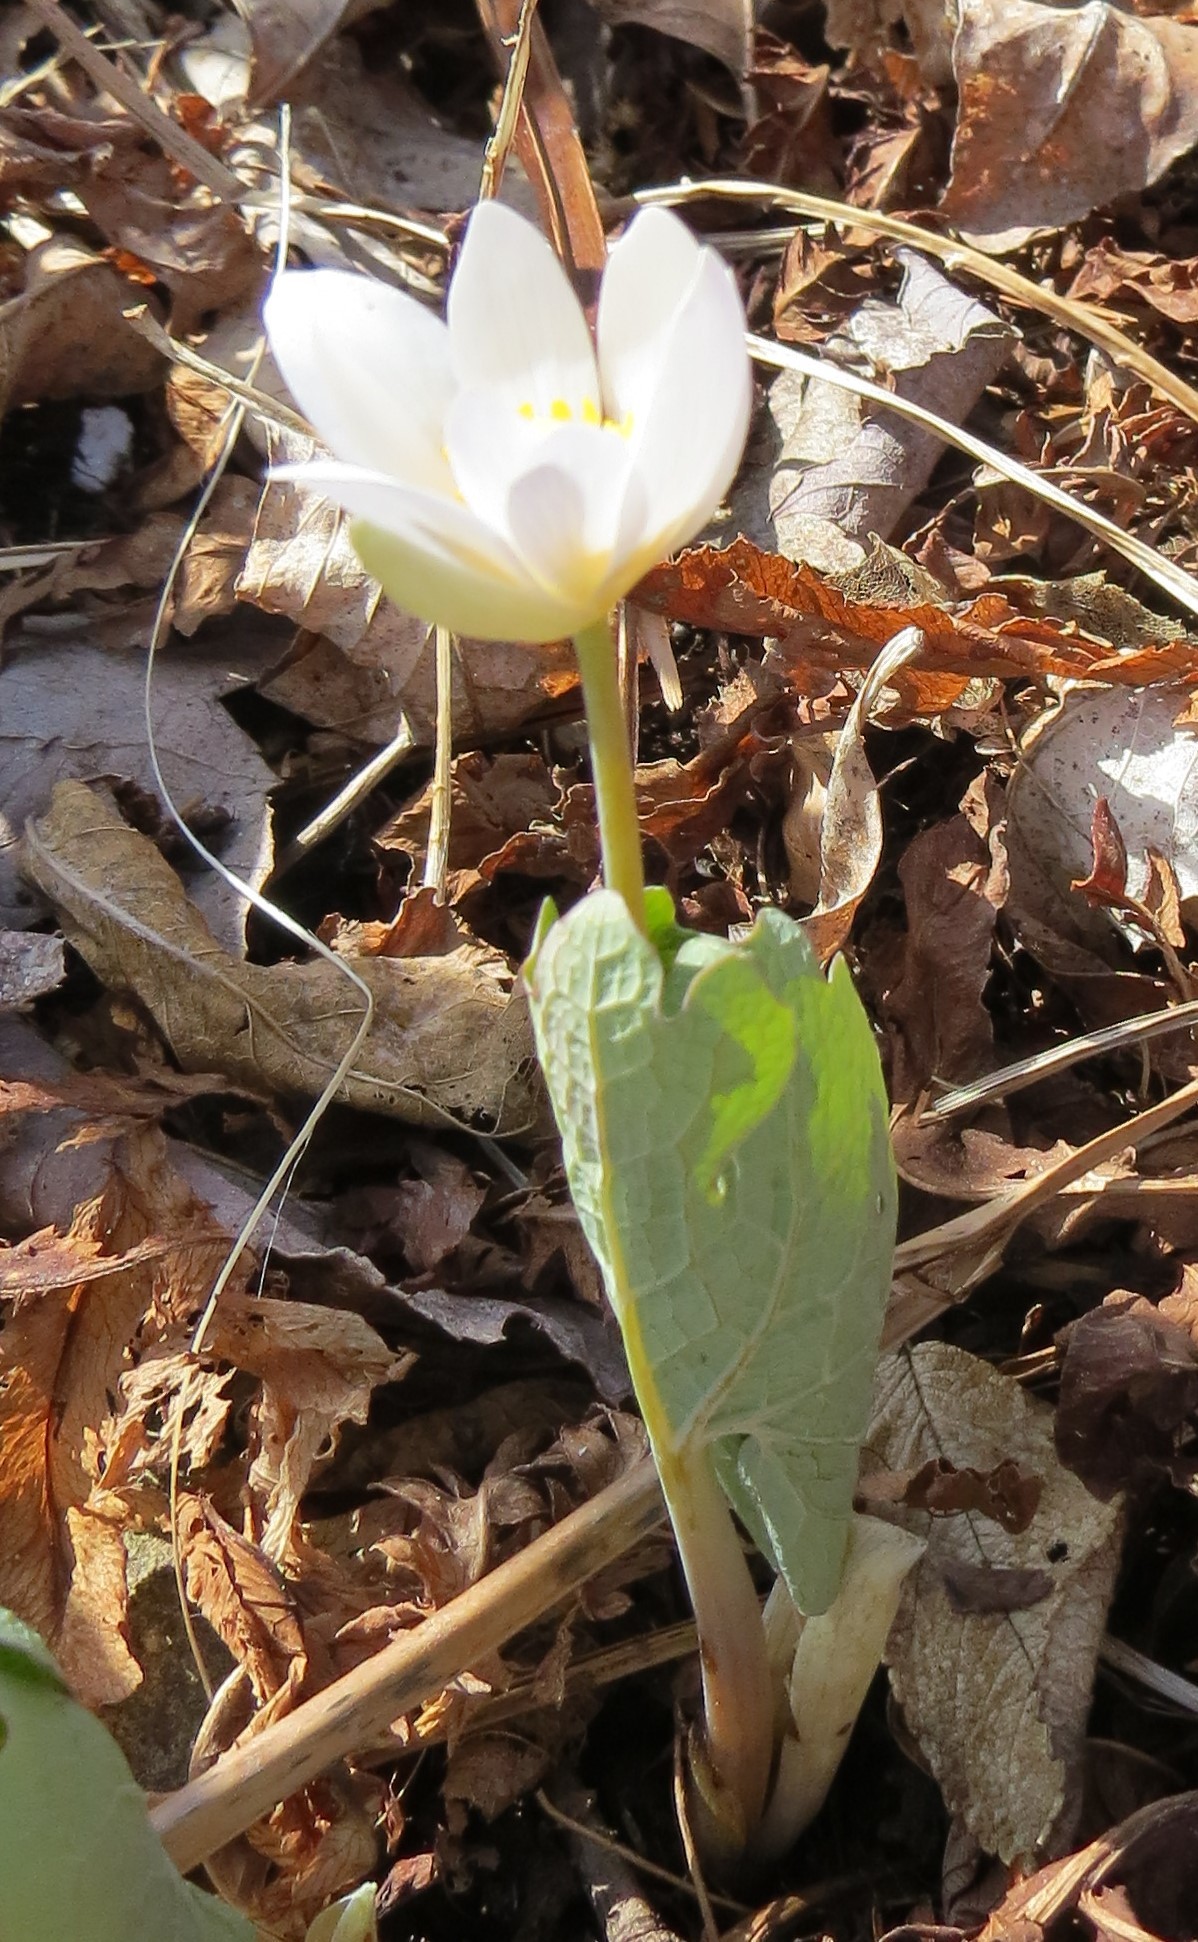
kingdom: Plantae
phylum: Tracheophyta
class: Magnoliopsida
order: Ranunculales
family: Papaveraceae
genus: Sanguinaria
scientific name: Sanguinaria canadensis
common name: Bloodroot
